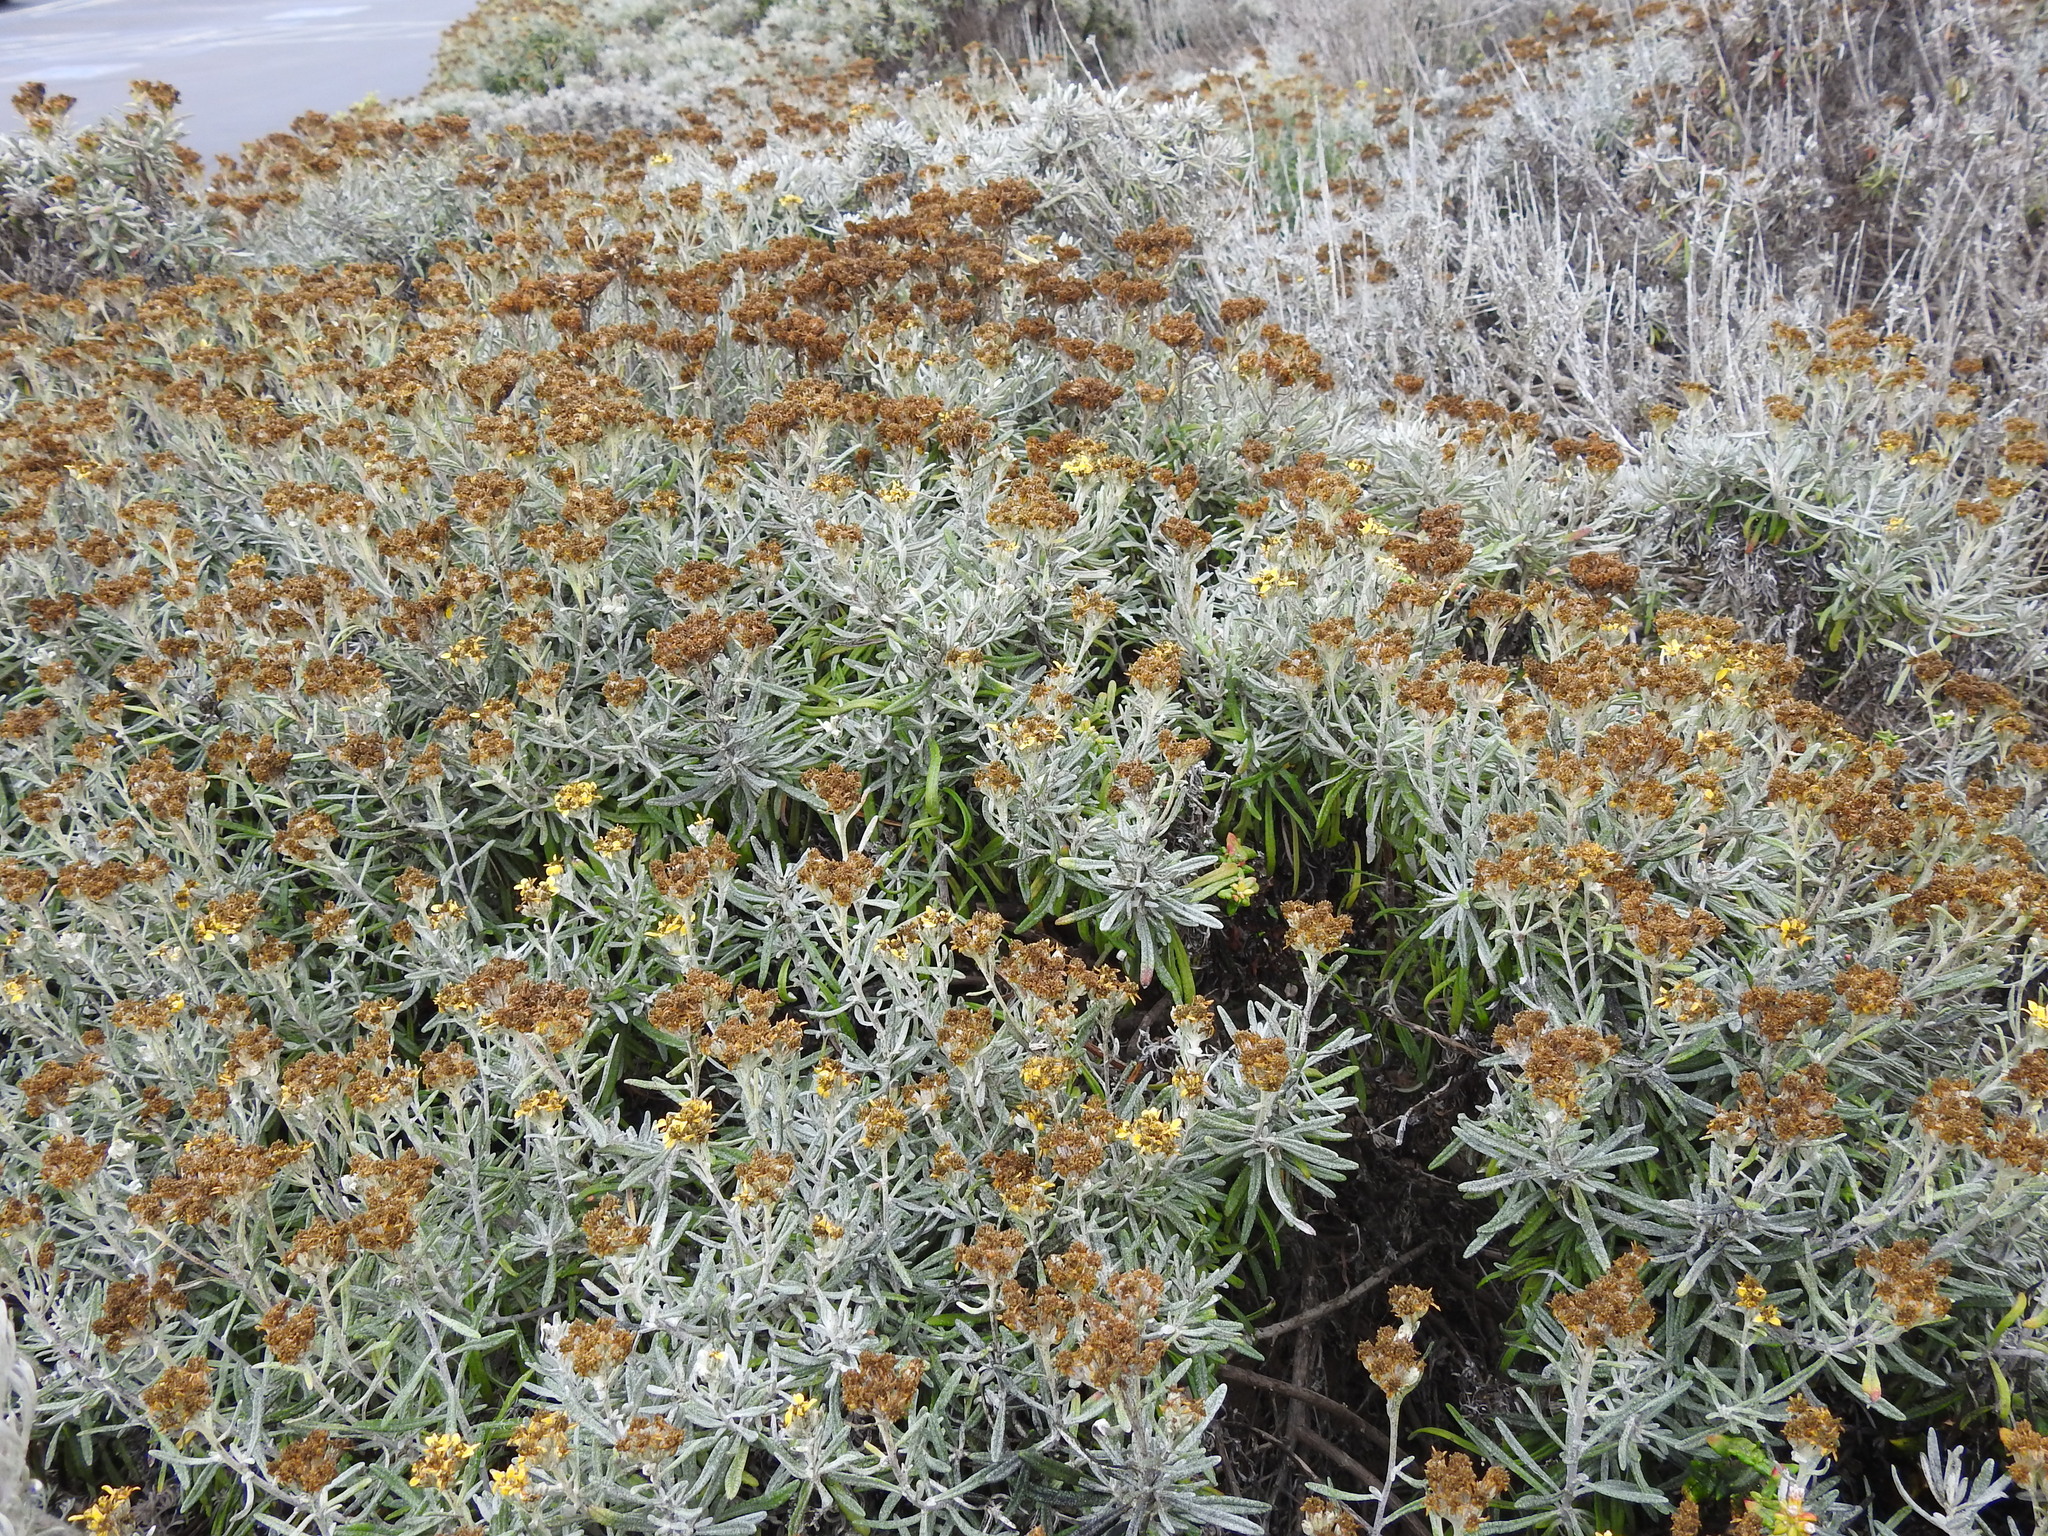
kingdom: Plantae
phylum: Tracheophyta
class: Magnoliopsida
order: Asterales
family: Asteraceae
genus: Eriophyllum
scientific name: Eriophyllum staechadifolium
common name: Lizardtail
